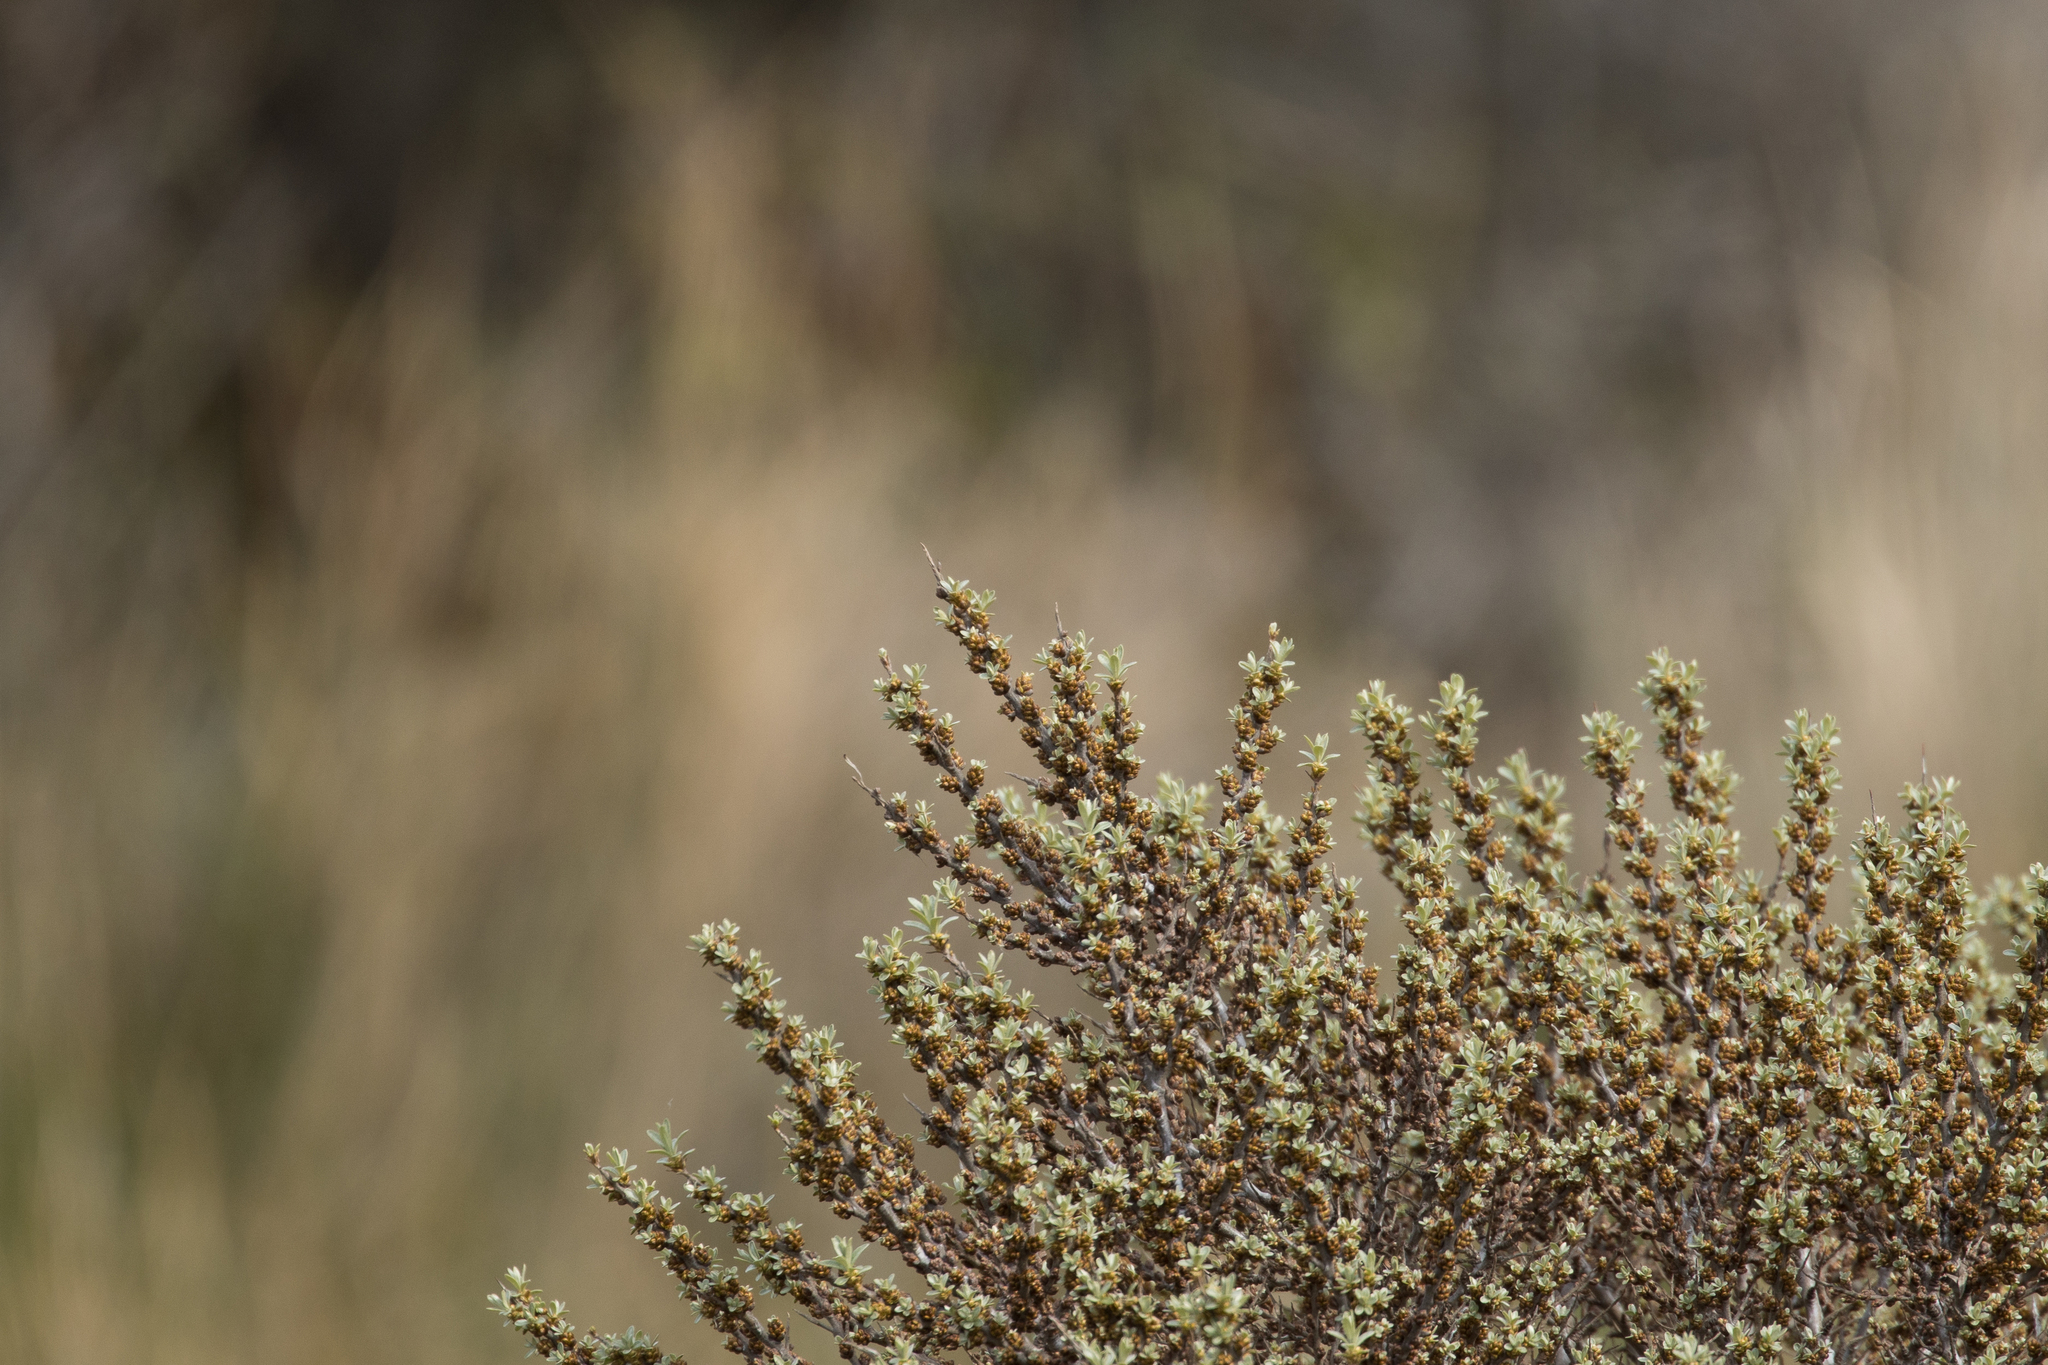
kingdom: Plantae
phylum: Tracheophyta
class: Magnoliopsida
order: Rosales
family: Elaeagnaceae
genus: Hippophae
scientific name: Hippophae rhamnoides
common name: Sea-buckthorn
